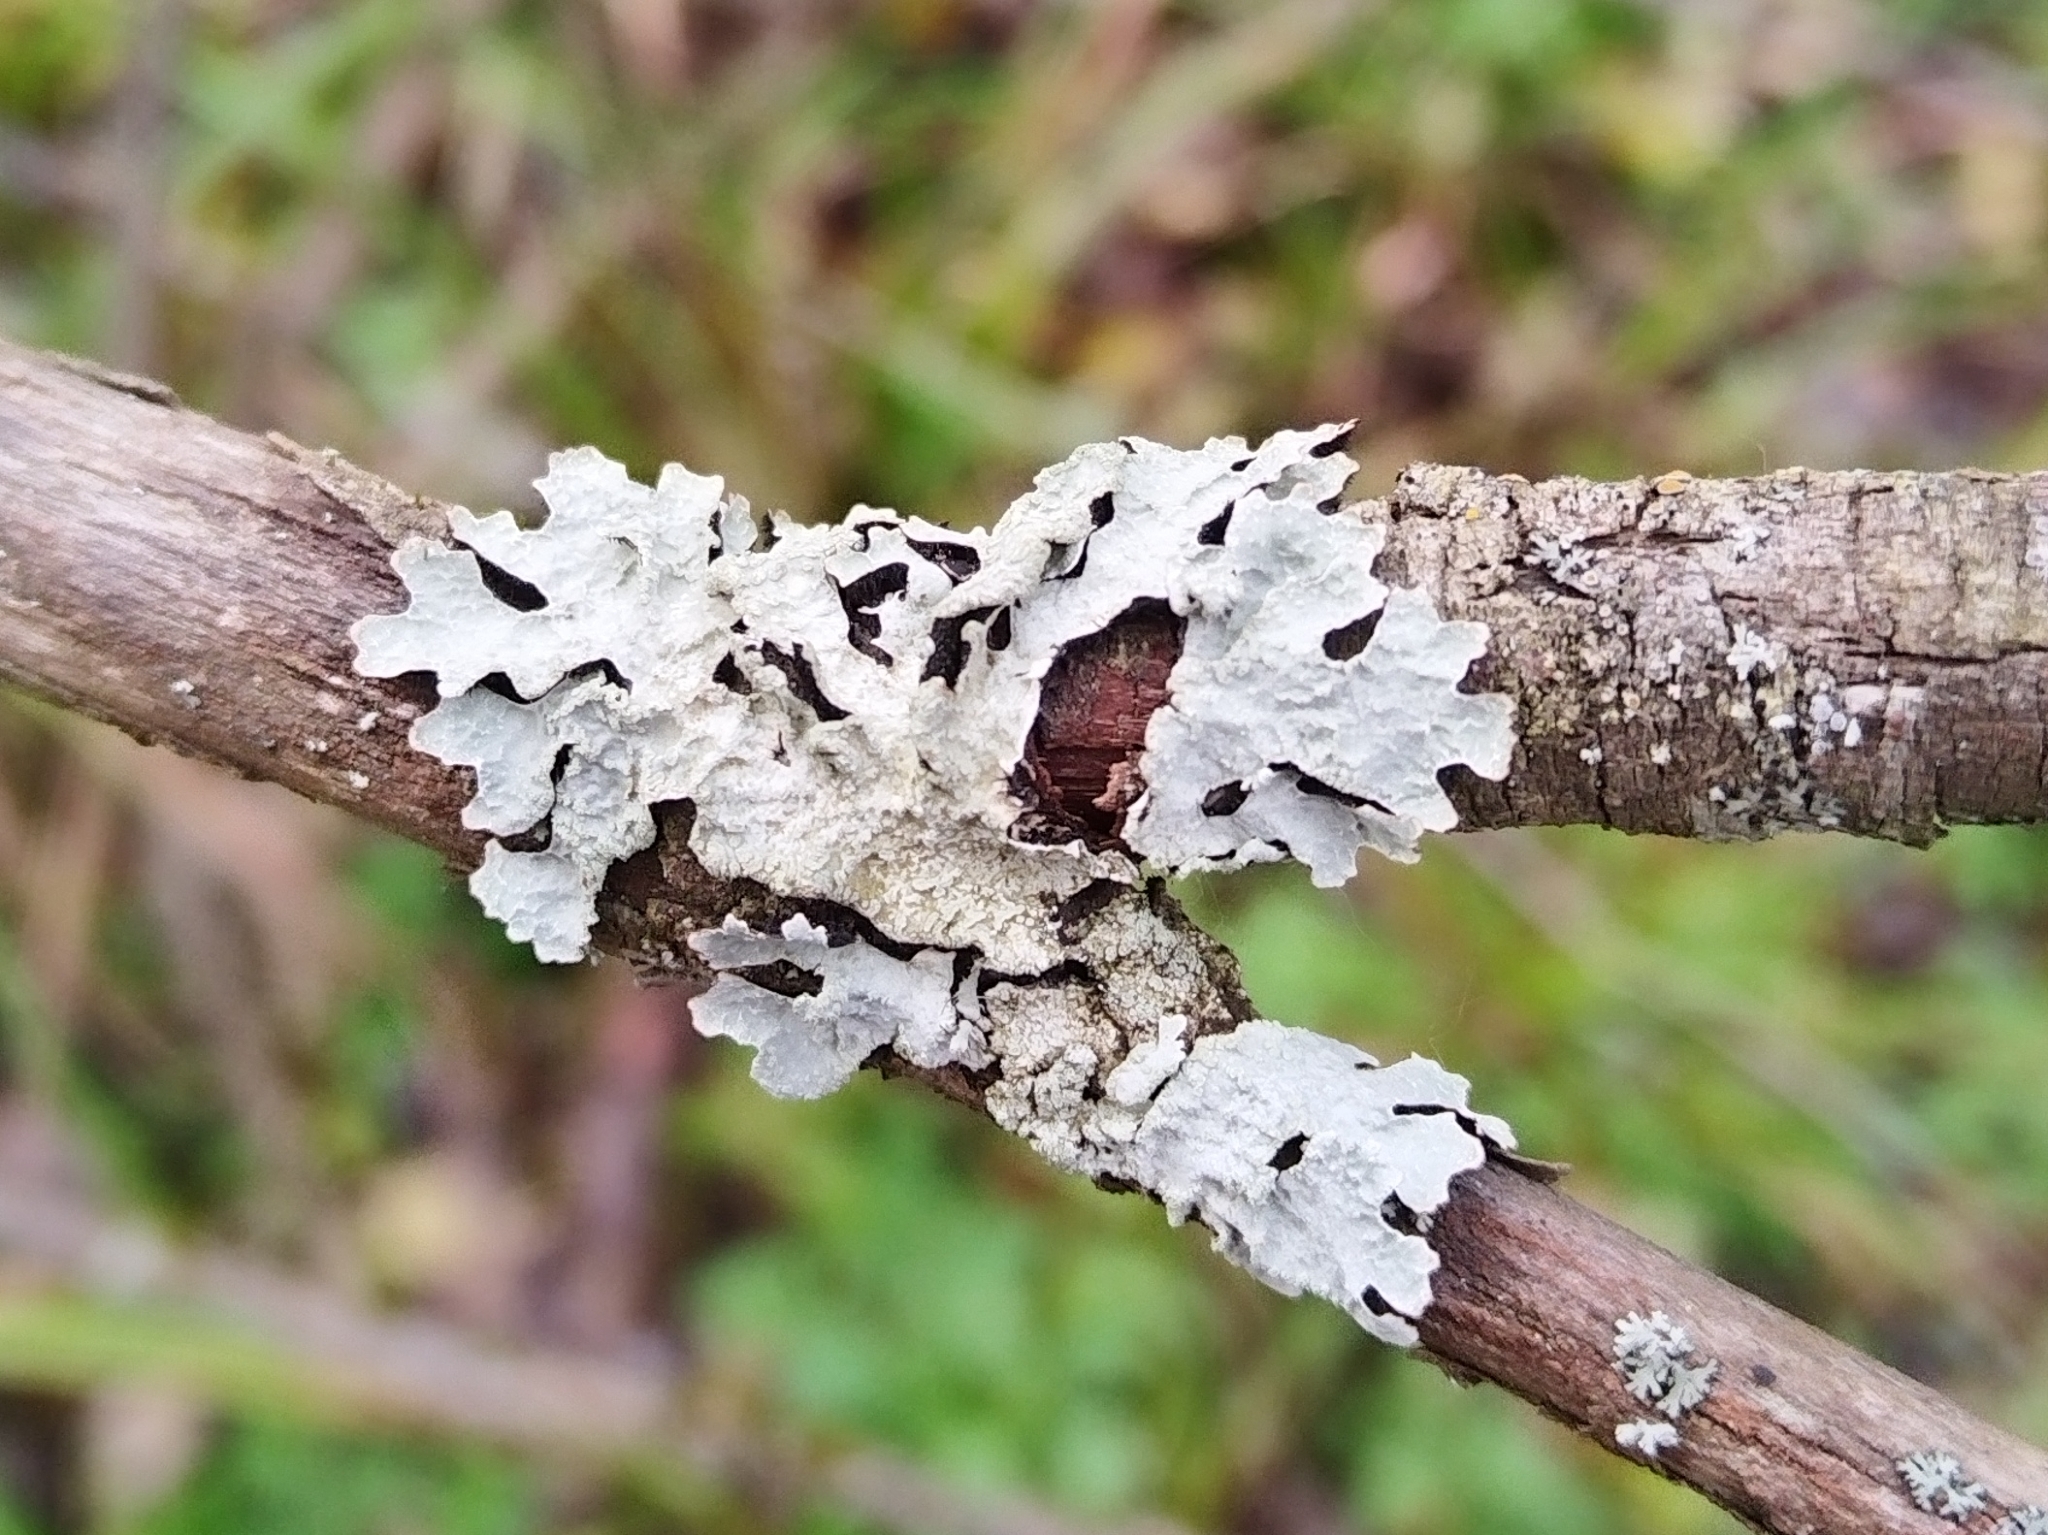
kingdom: Fungi
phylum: Ascomycota
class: Lecanoromycetes
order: Lecanorales
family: Parmeliaceae
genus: Parmelia
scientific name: Parmelia sulcata
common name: Netted shield lichen
